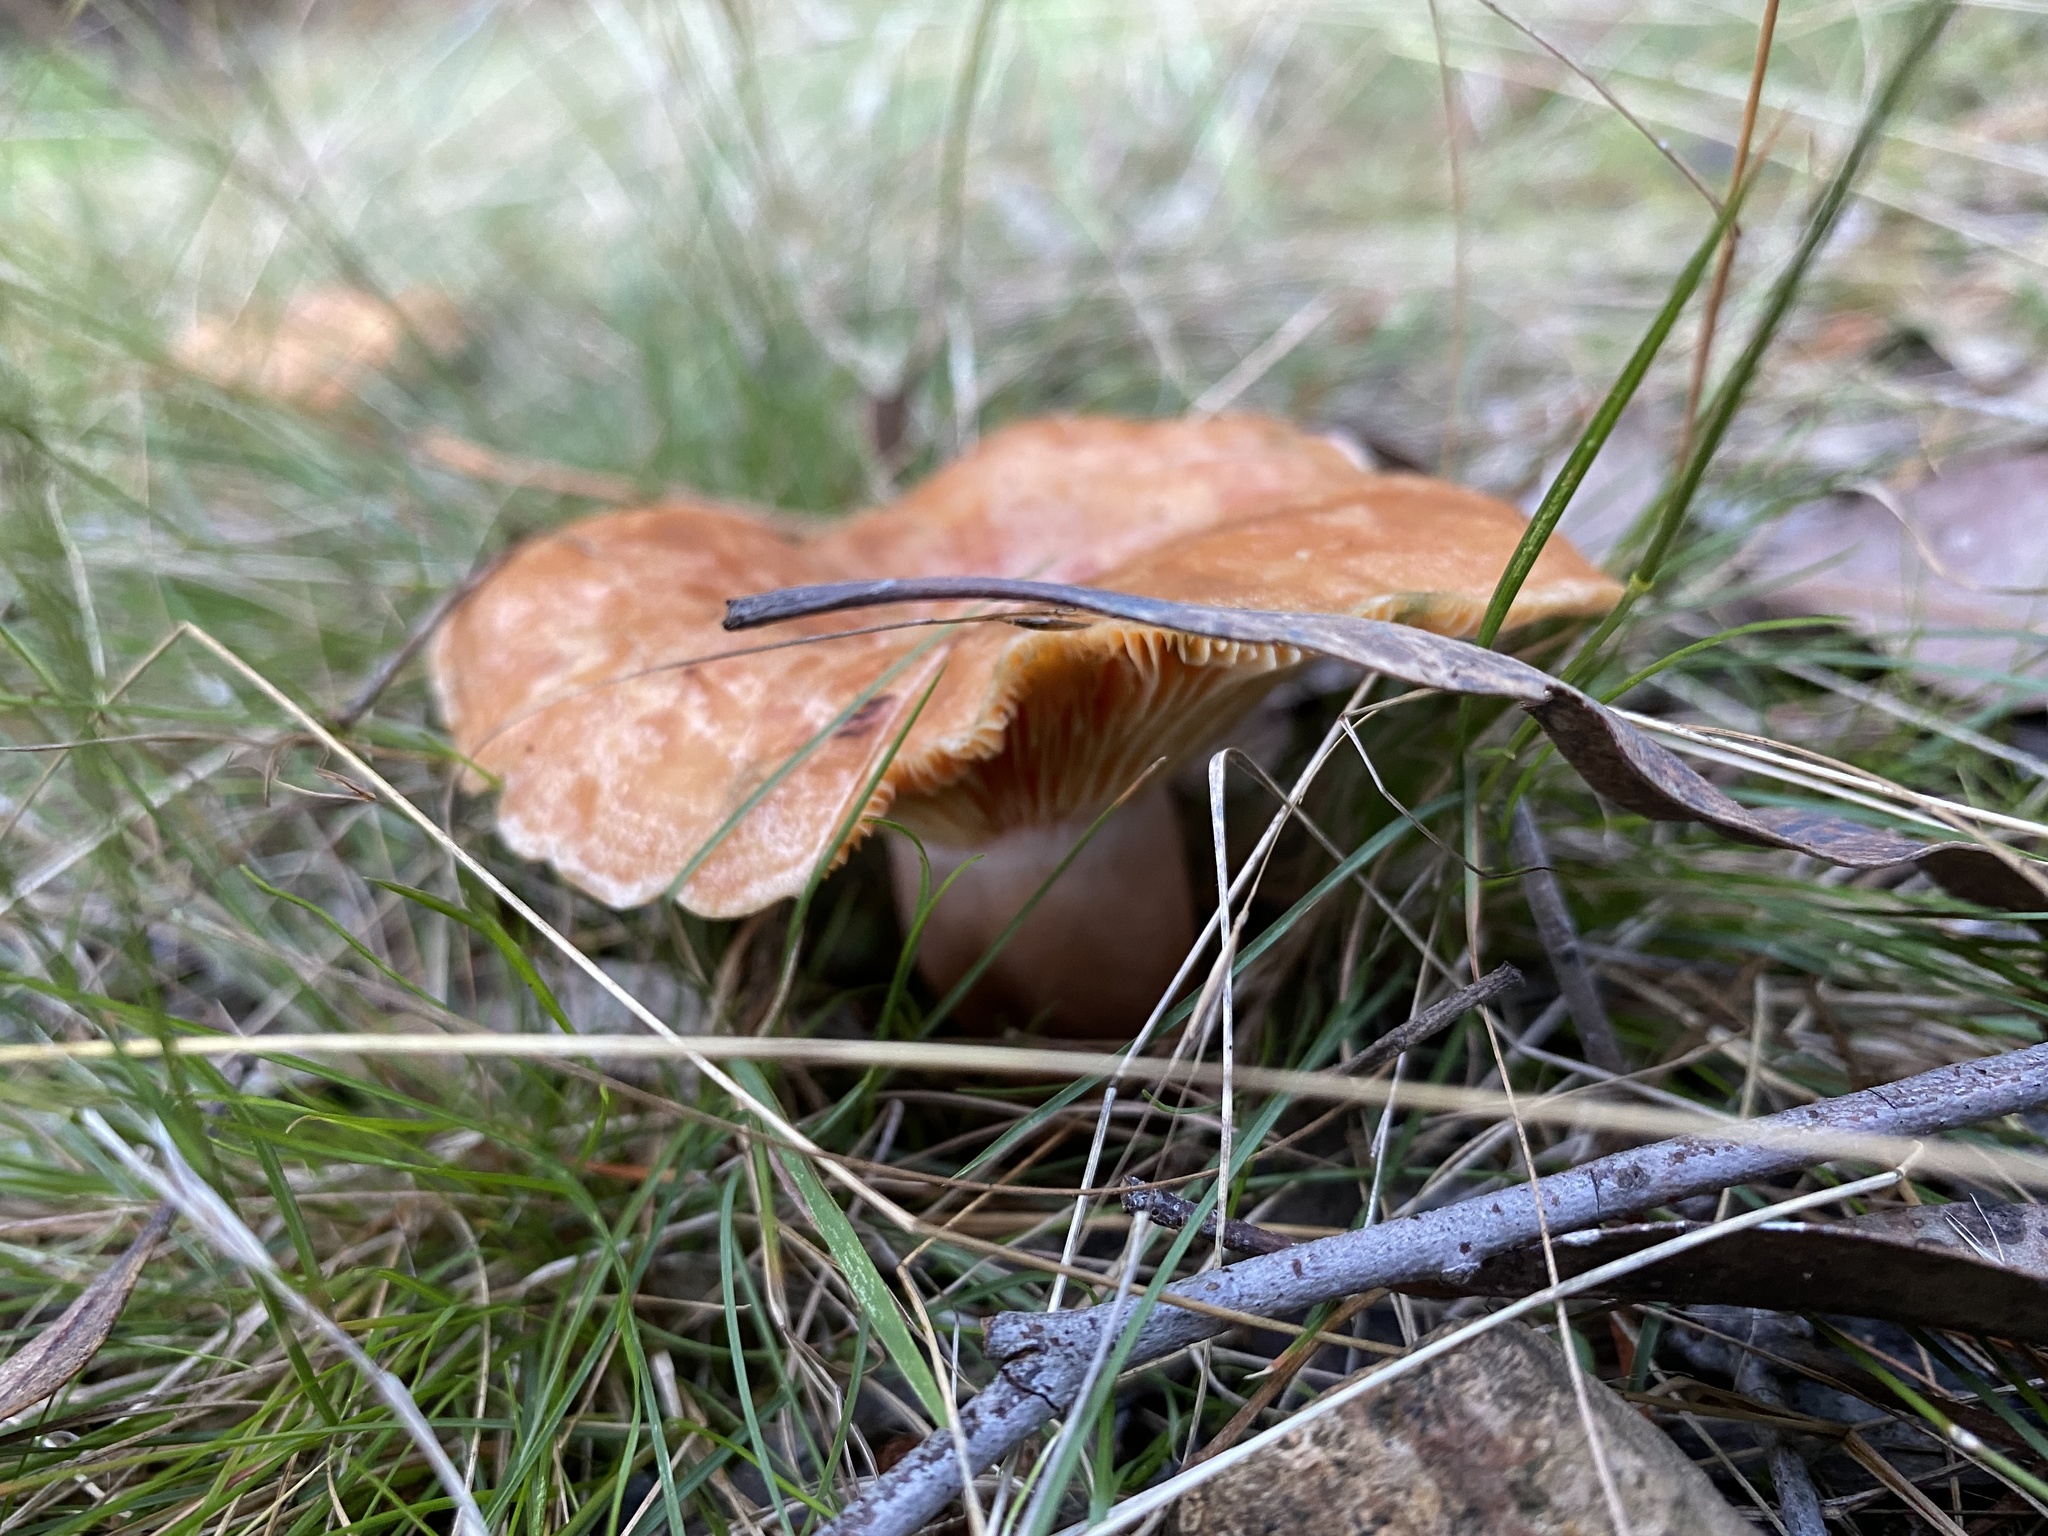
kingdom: Fungi
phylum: Basidiomycota
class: Agaricomycetes
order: Russulales
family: Russulaceae
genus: Lactarius
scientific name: Lactarius deliciosus
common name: Saffron milk-cap
